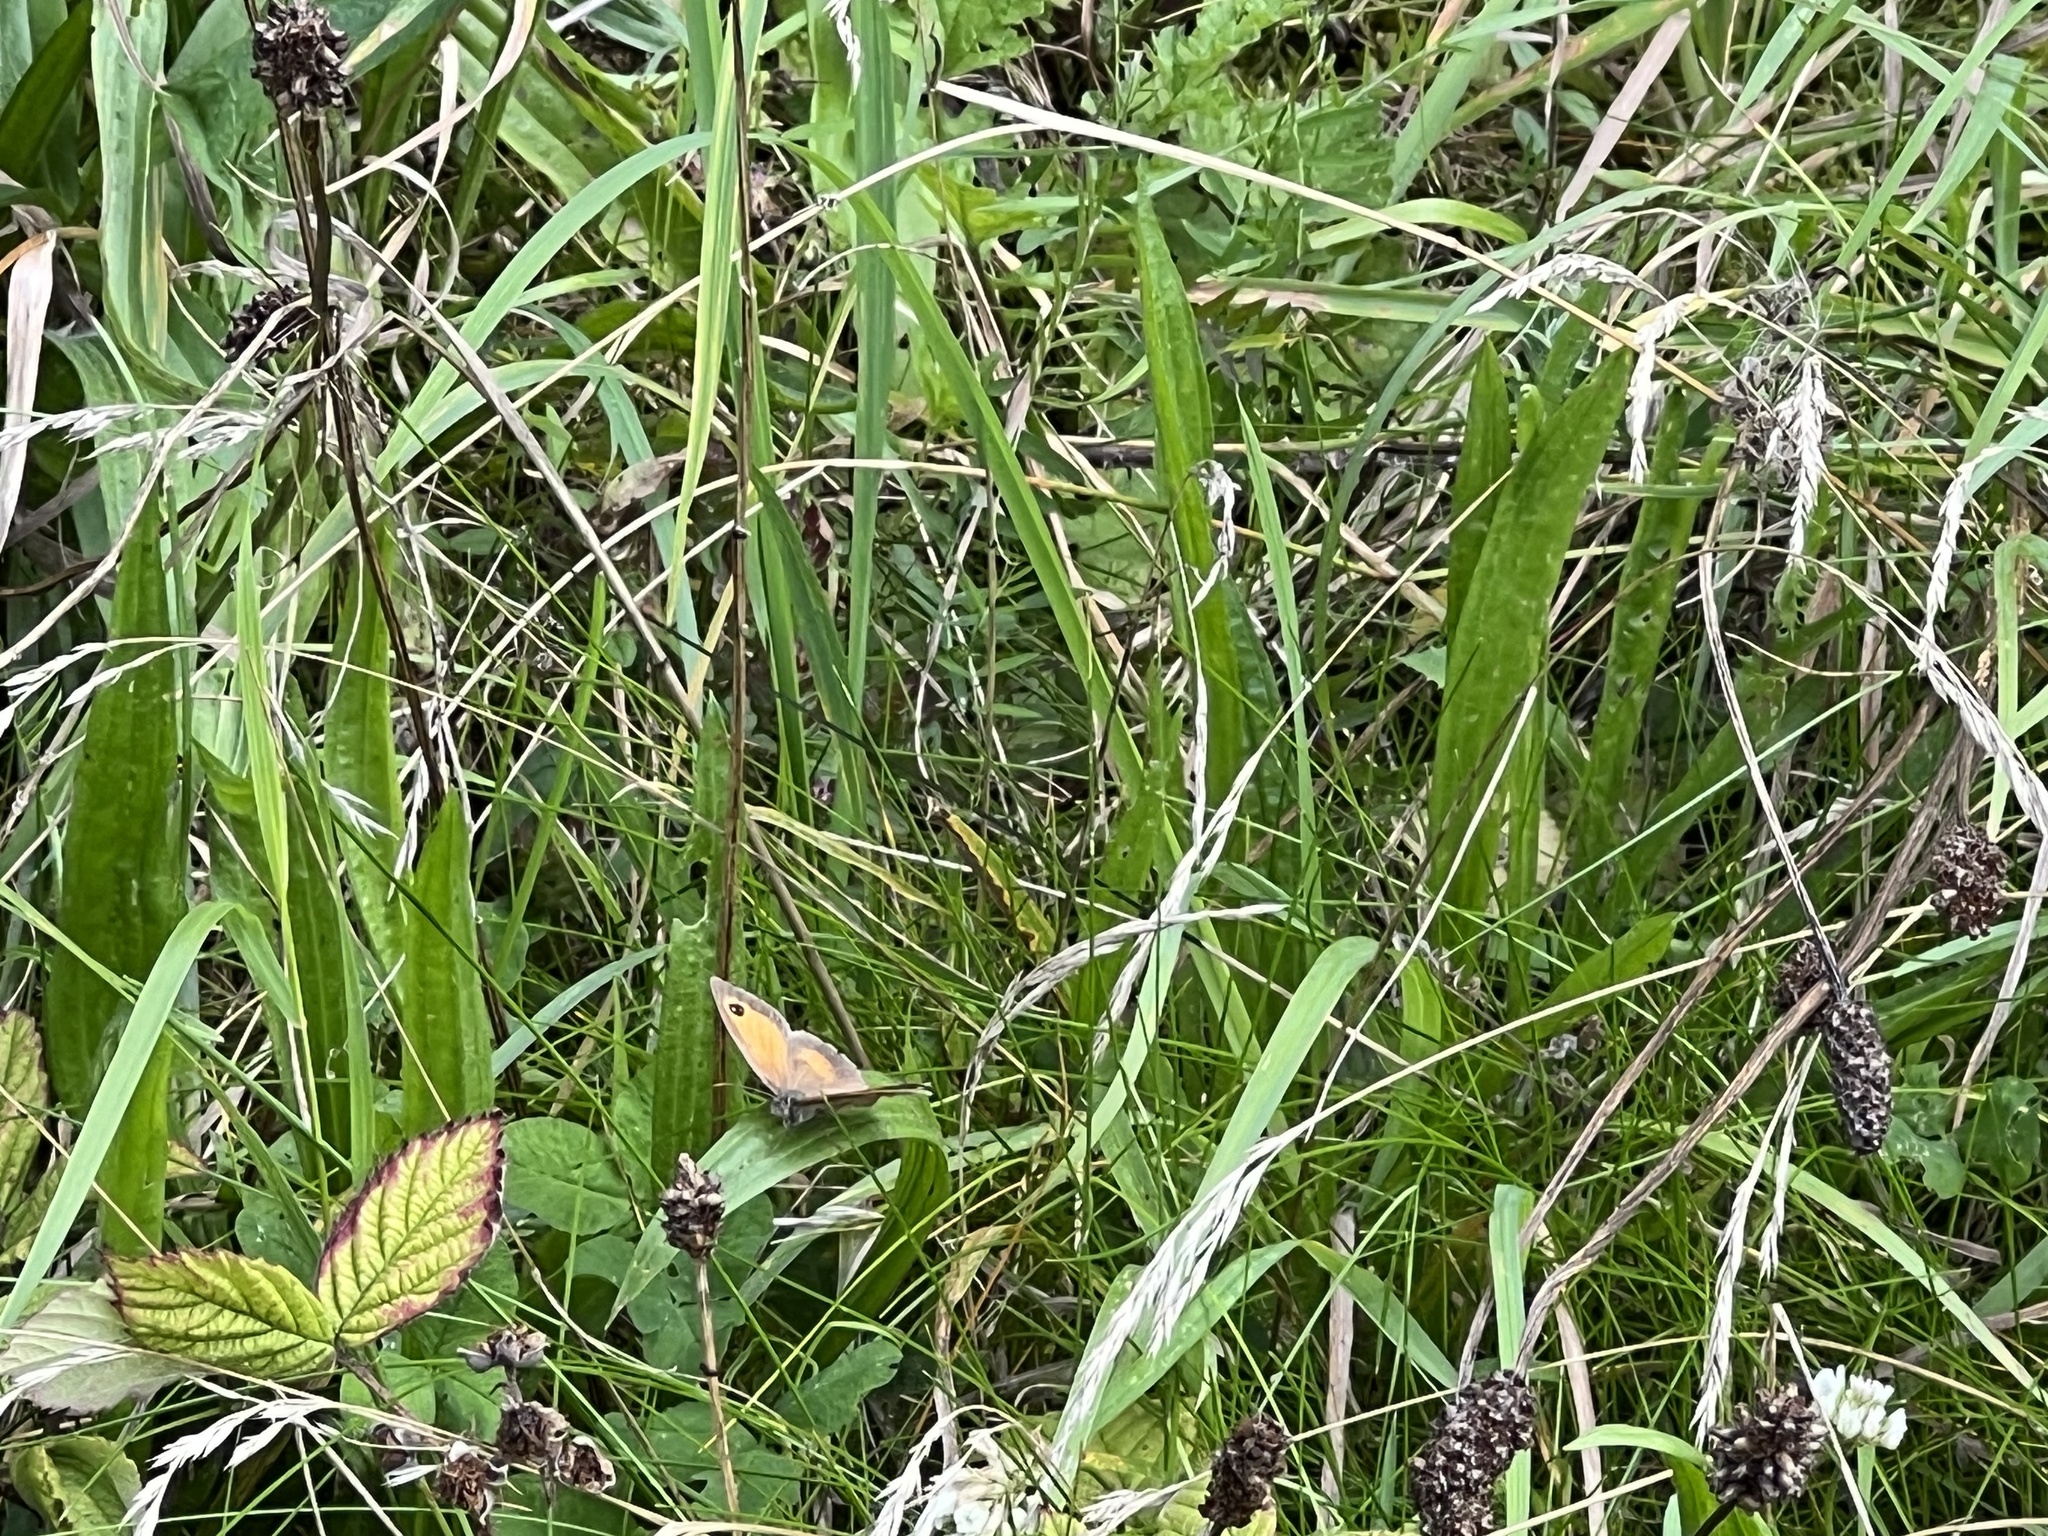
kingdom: Animalia
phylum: Arthropoda
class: Insecta
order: Lepidoptera
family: Nymphalidae
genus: Pyronia
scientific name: Pyronia tithonus
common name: Gatekeeper
